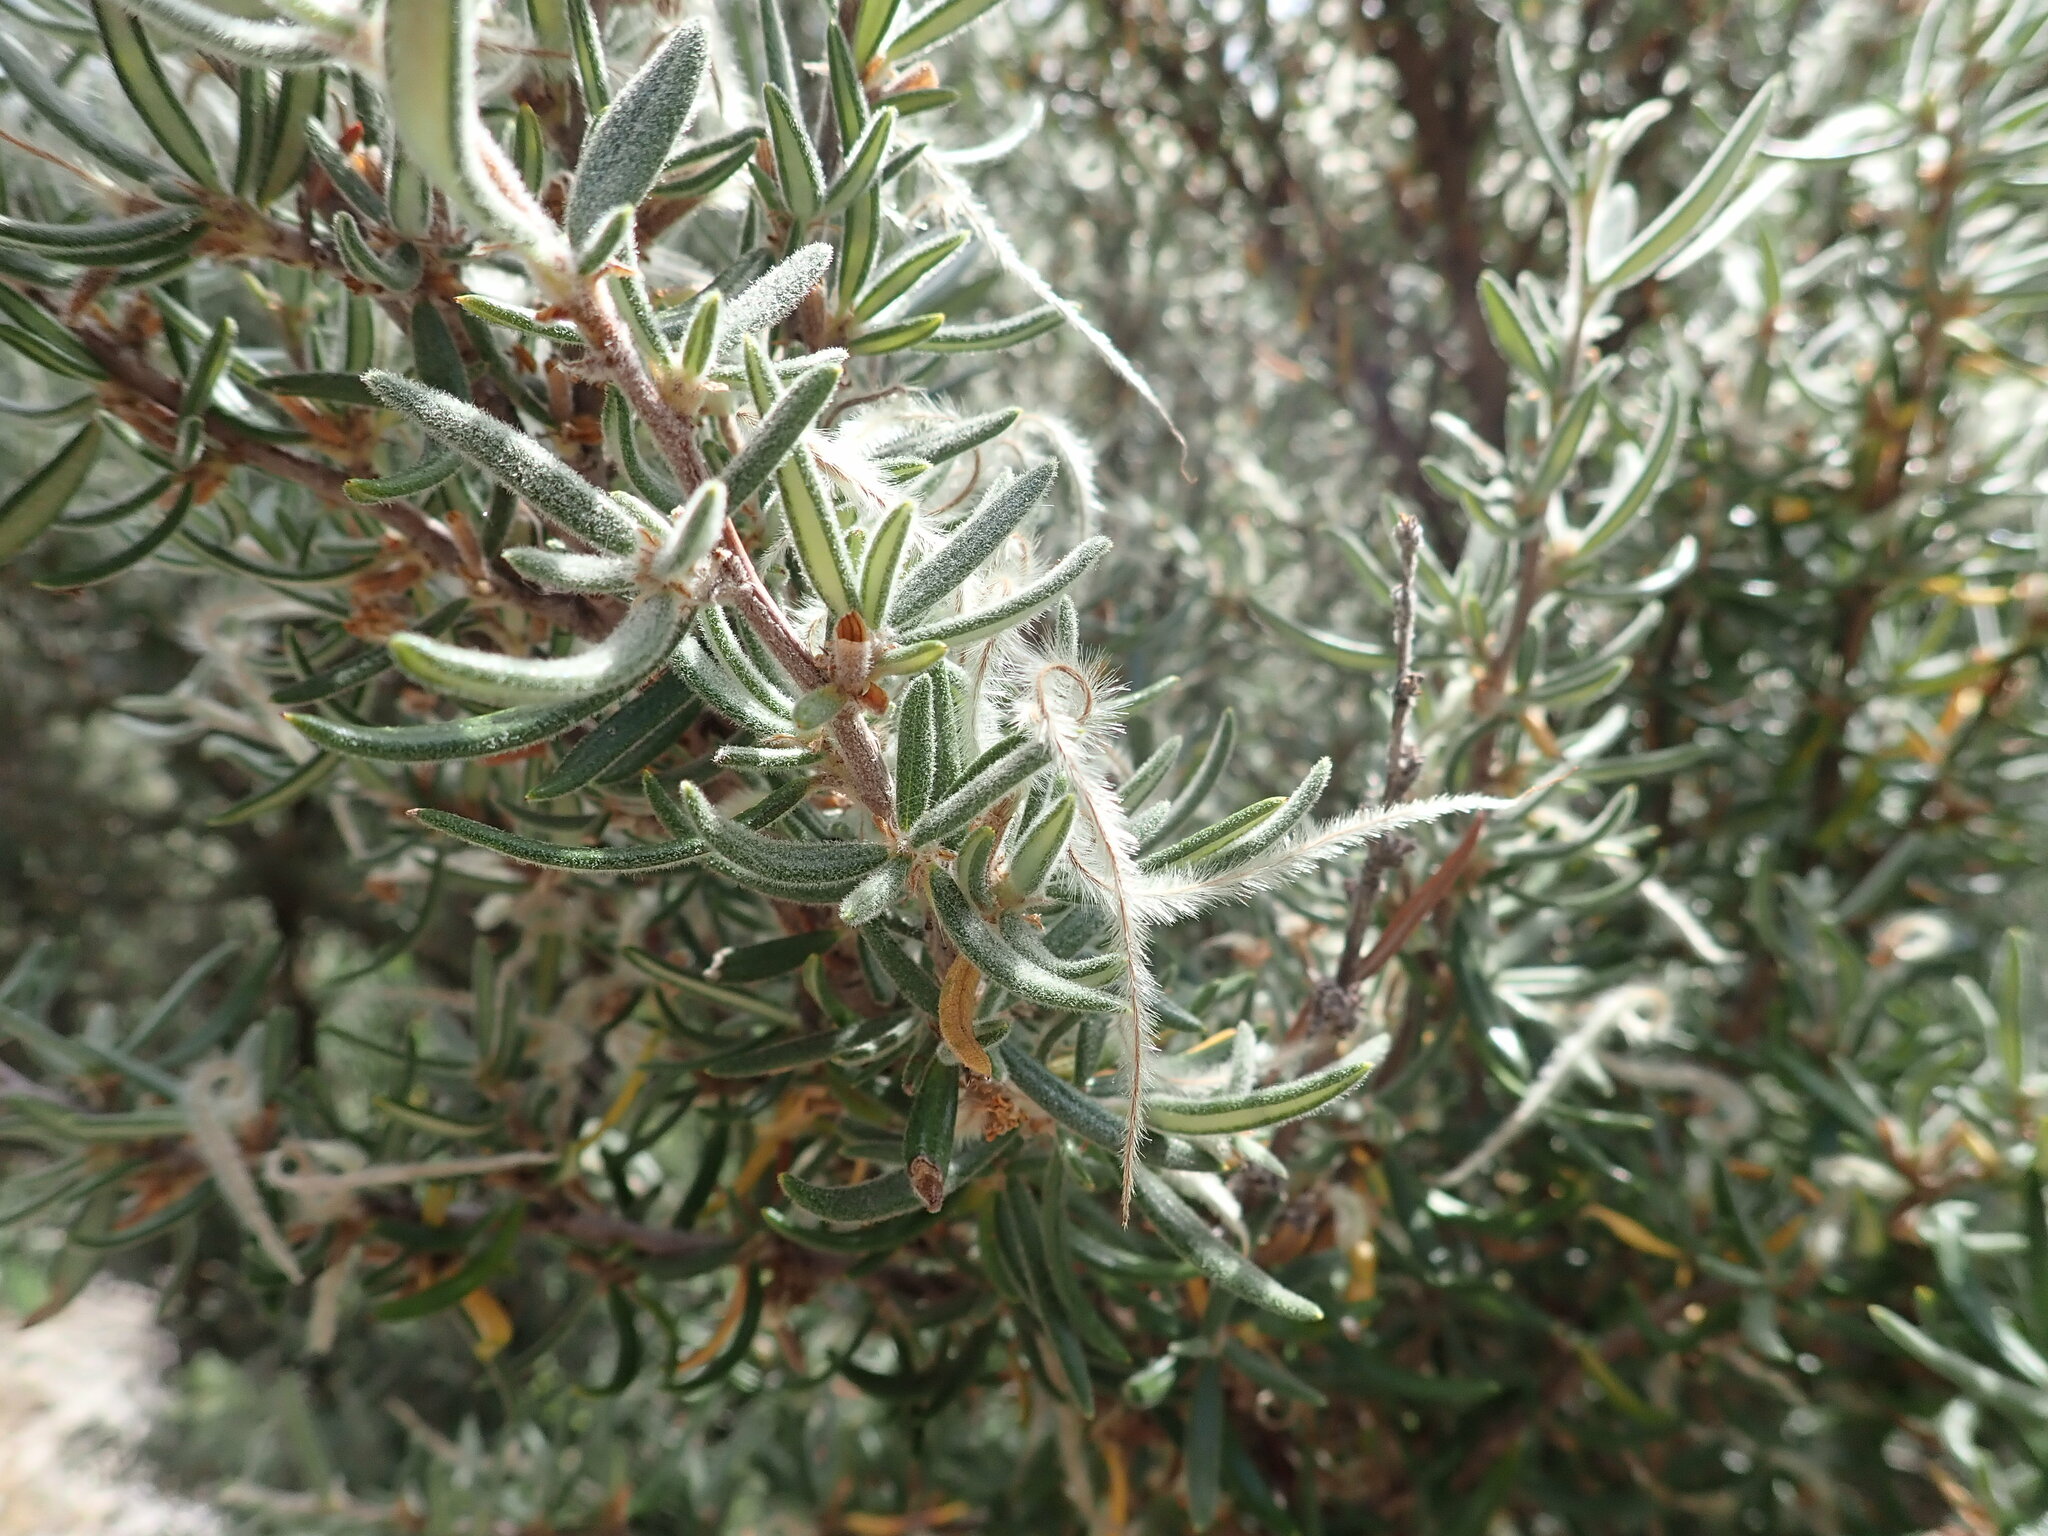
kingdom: Plantae
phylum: Tracheophyta
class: Magnoliopsida
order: Rosales
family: Rosaceae
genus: Cercocarpus
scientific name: Cercocarpus ledifolius
